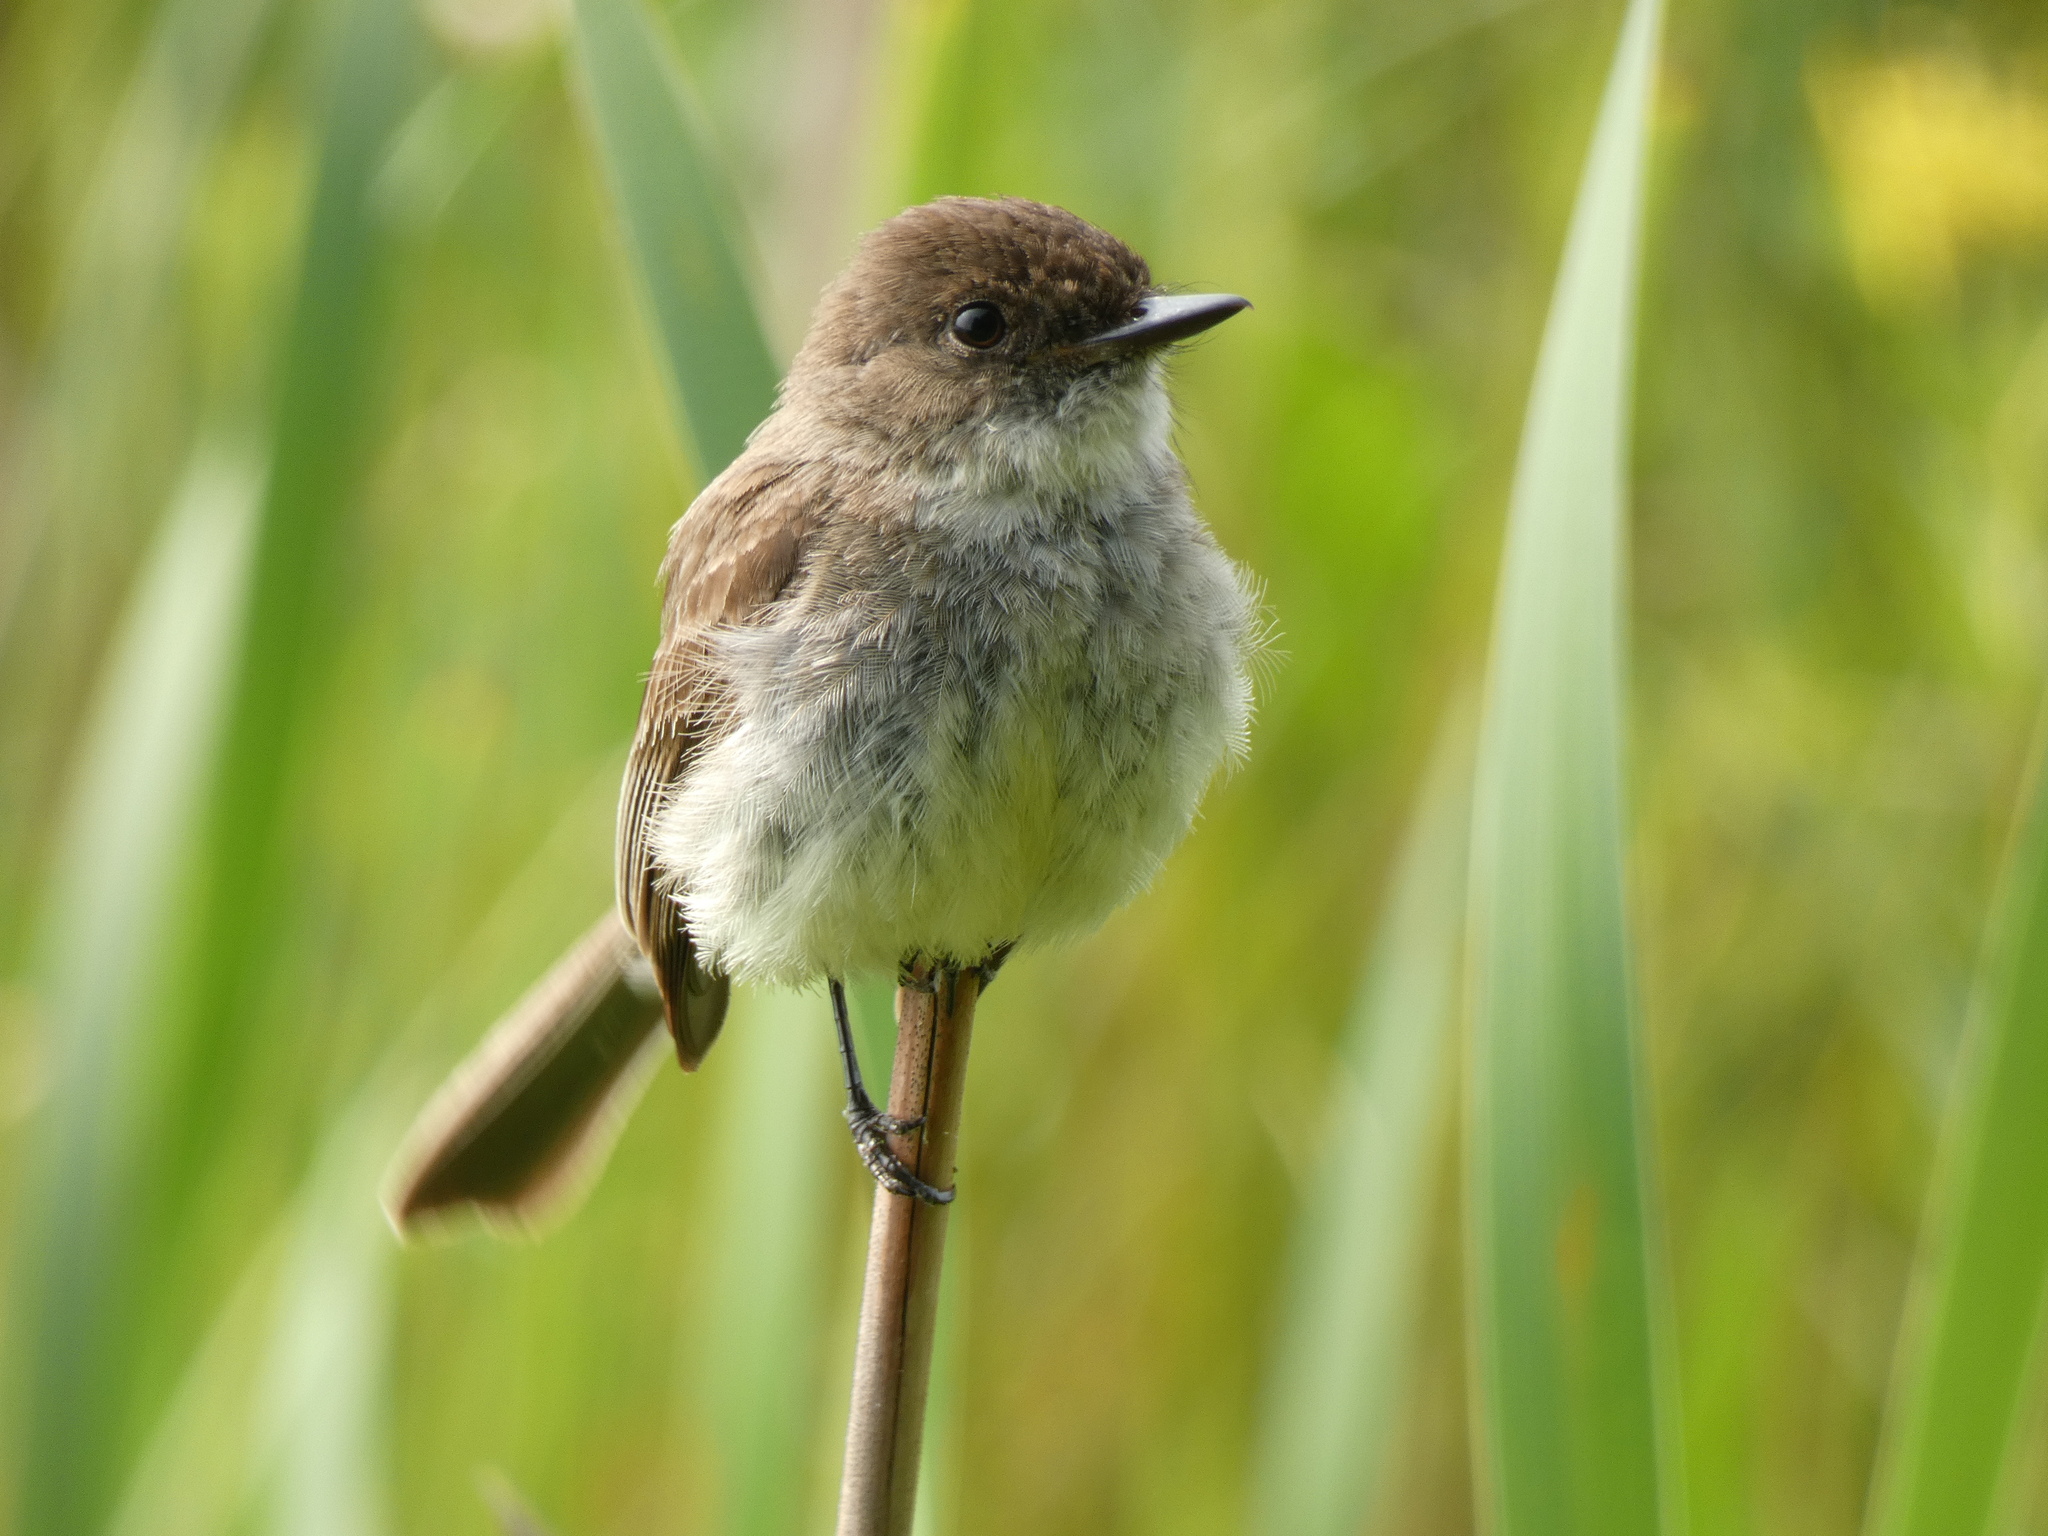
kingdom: Animalia
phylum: Chordata
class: Aves
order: Passeriformes
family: Tyrannidae
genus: Sayornis
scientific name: Sayornis phoebe
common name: Eastern phoebe
